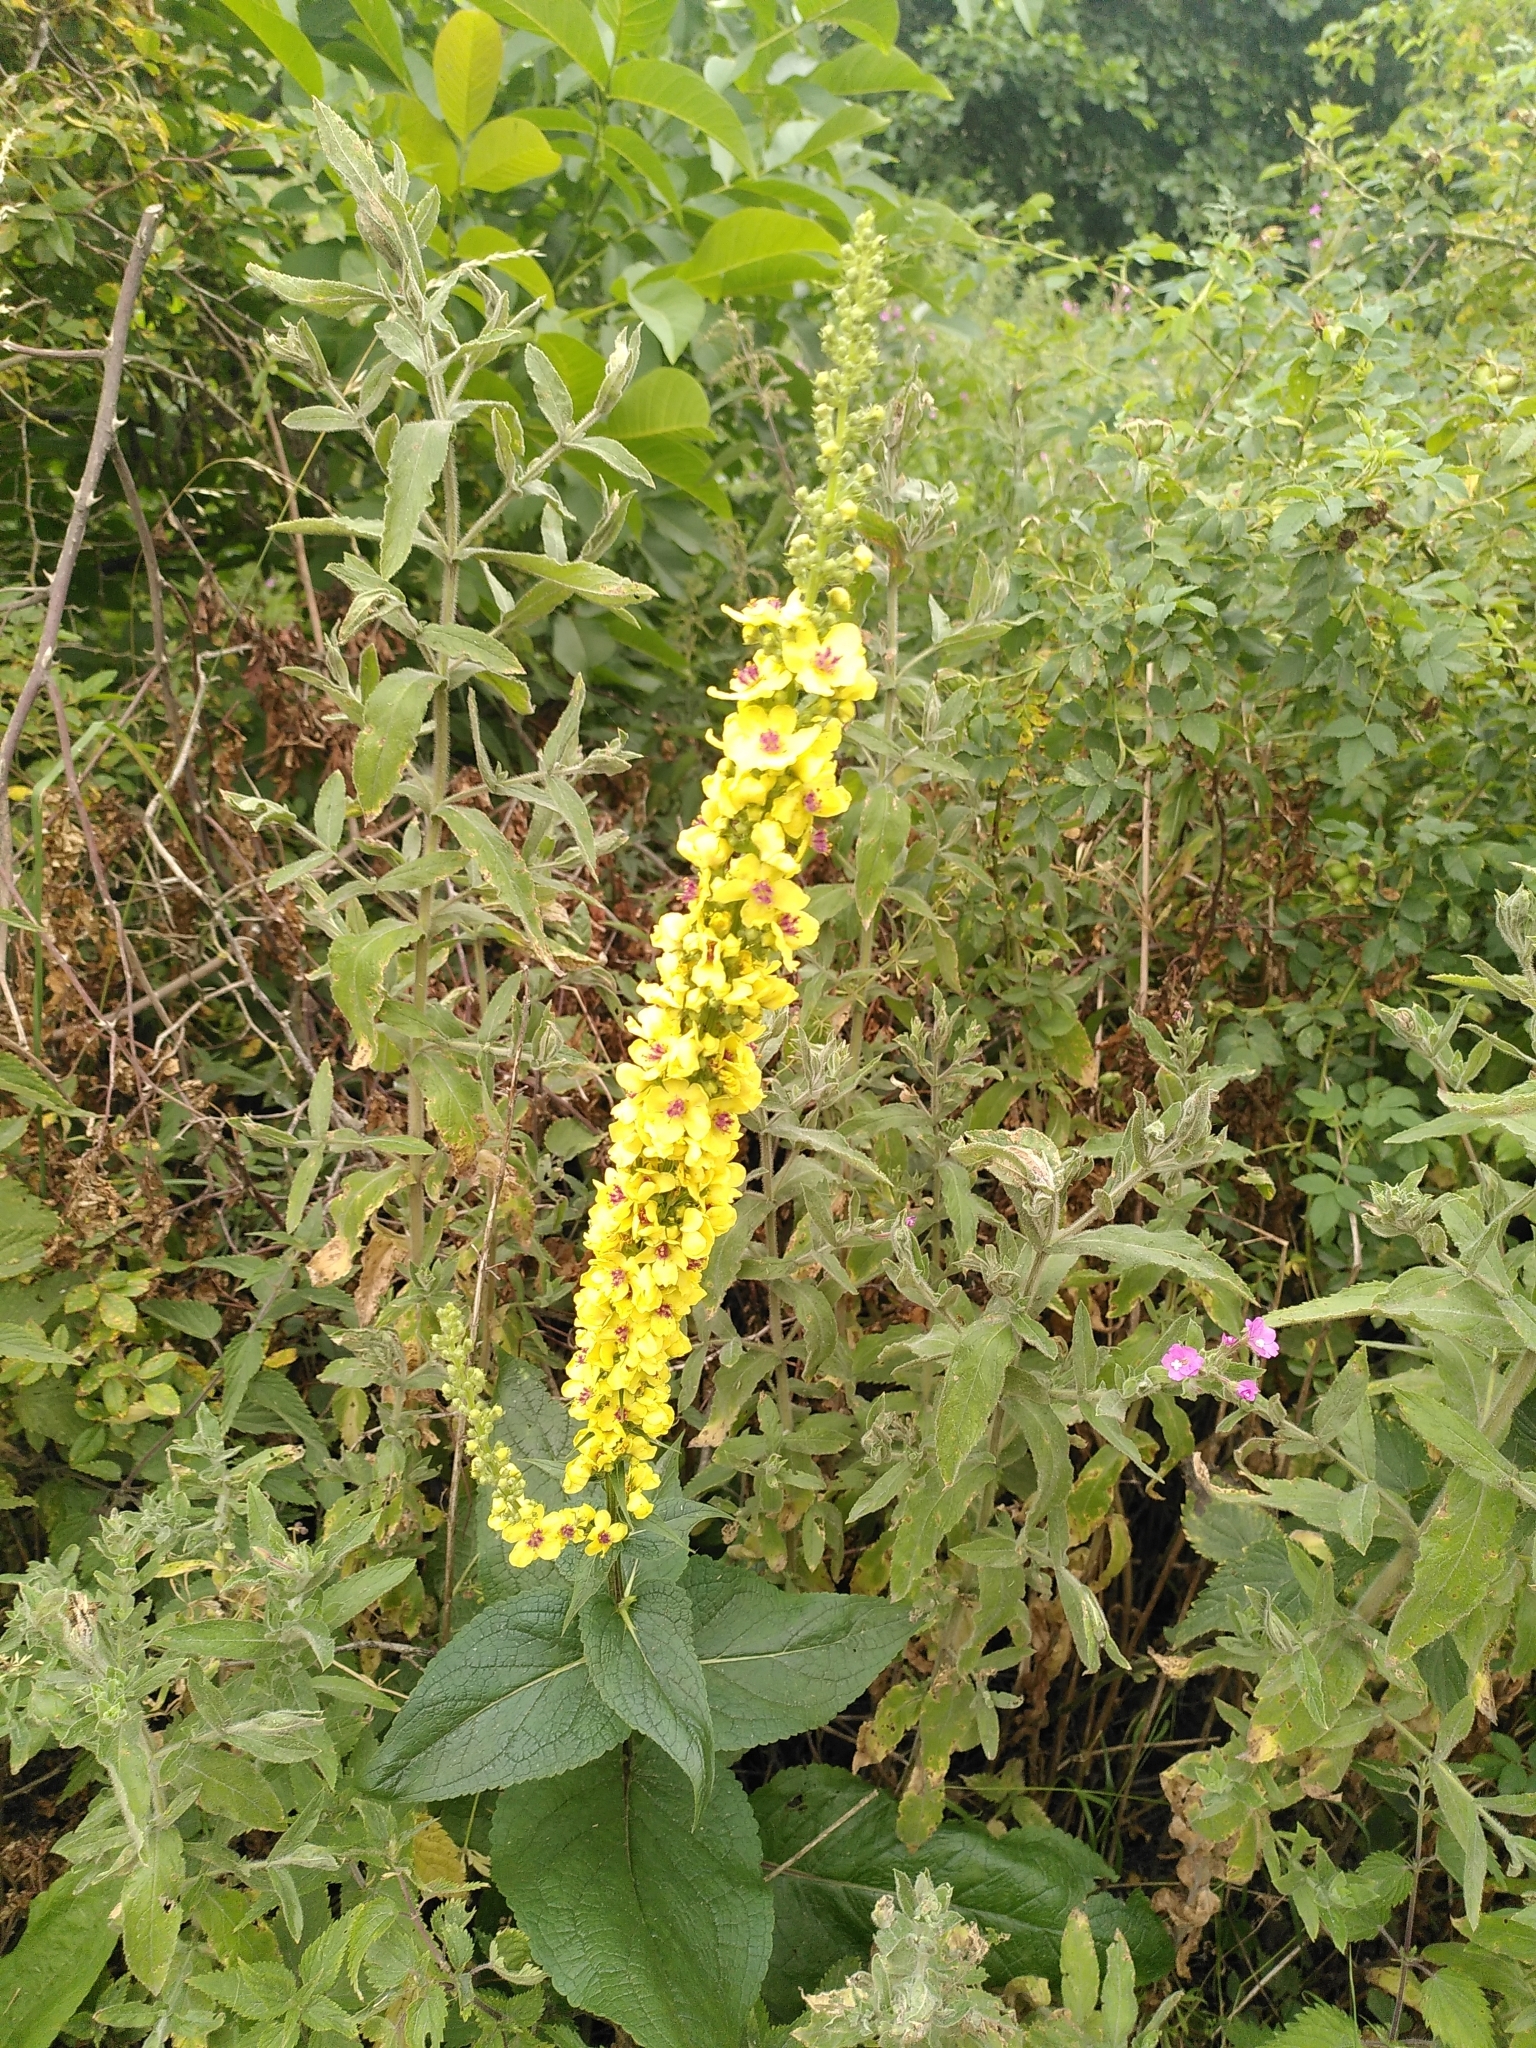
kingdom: Plantae
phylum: Tracheophyta
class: Magnoliopsida
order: Lamiales
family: Scrophulariaceae
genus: Verbascum
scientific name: Verbascum nigrum
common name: Dark mullein
